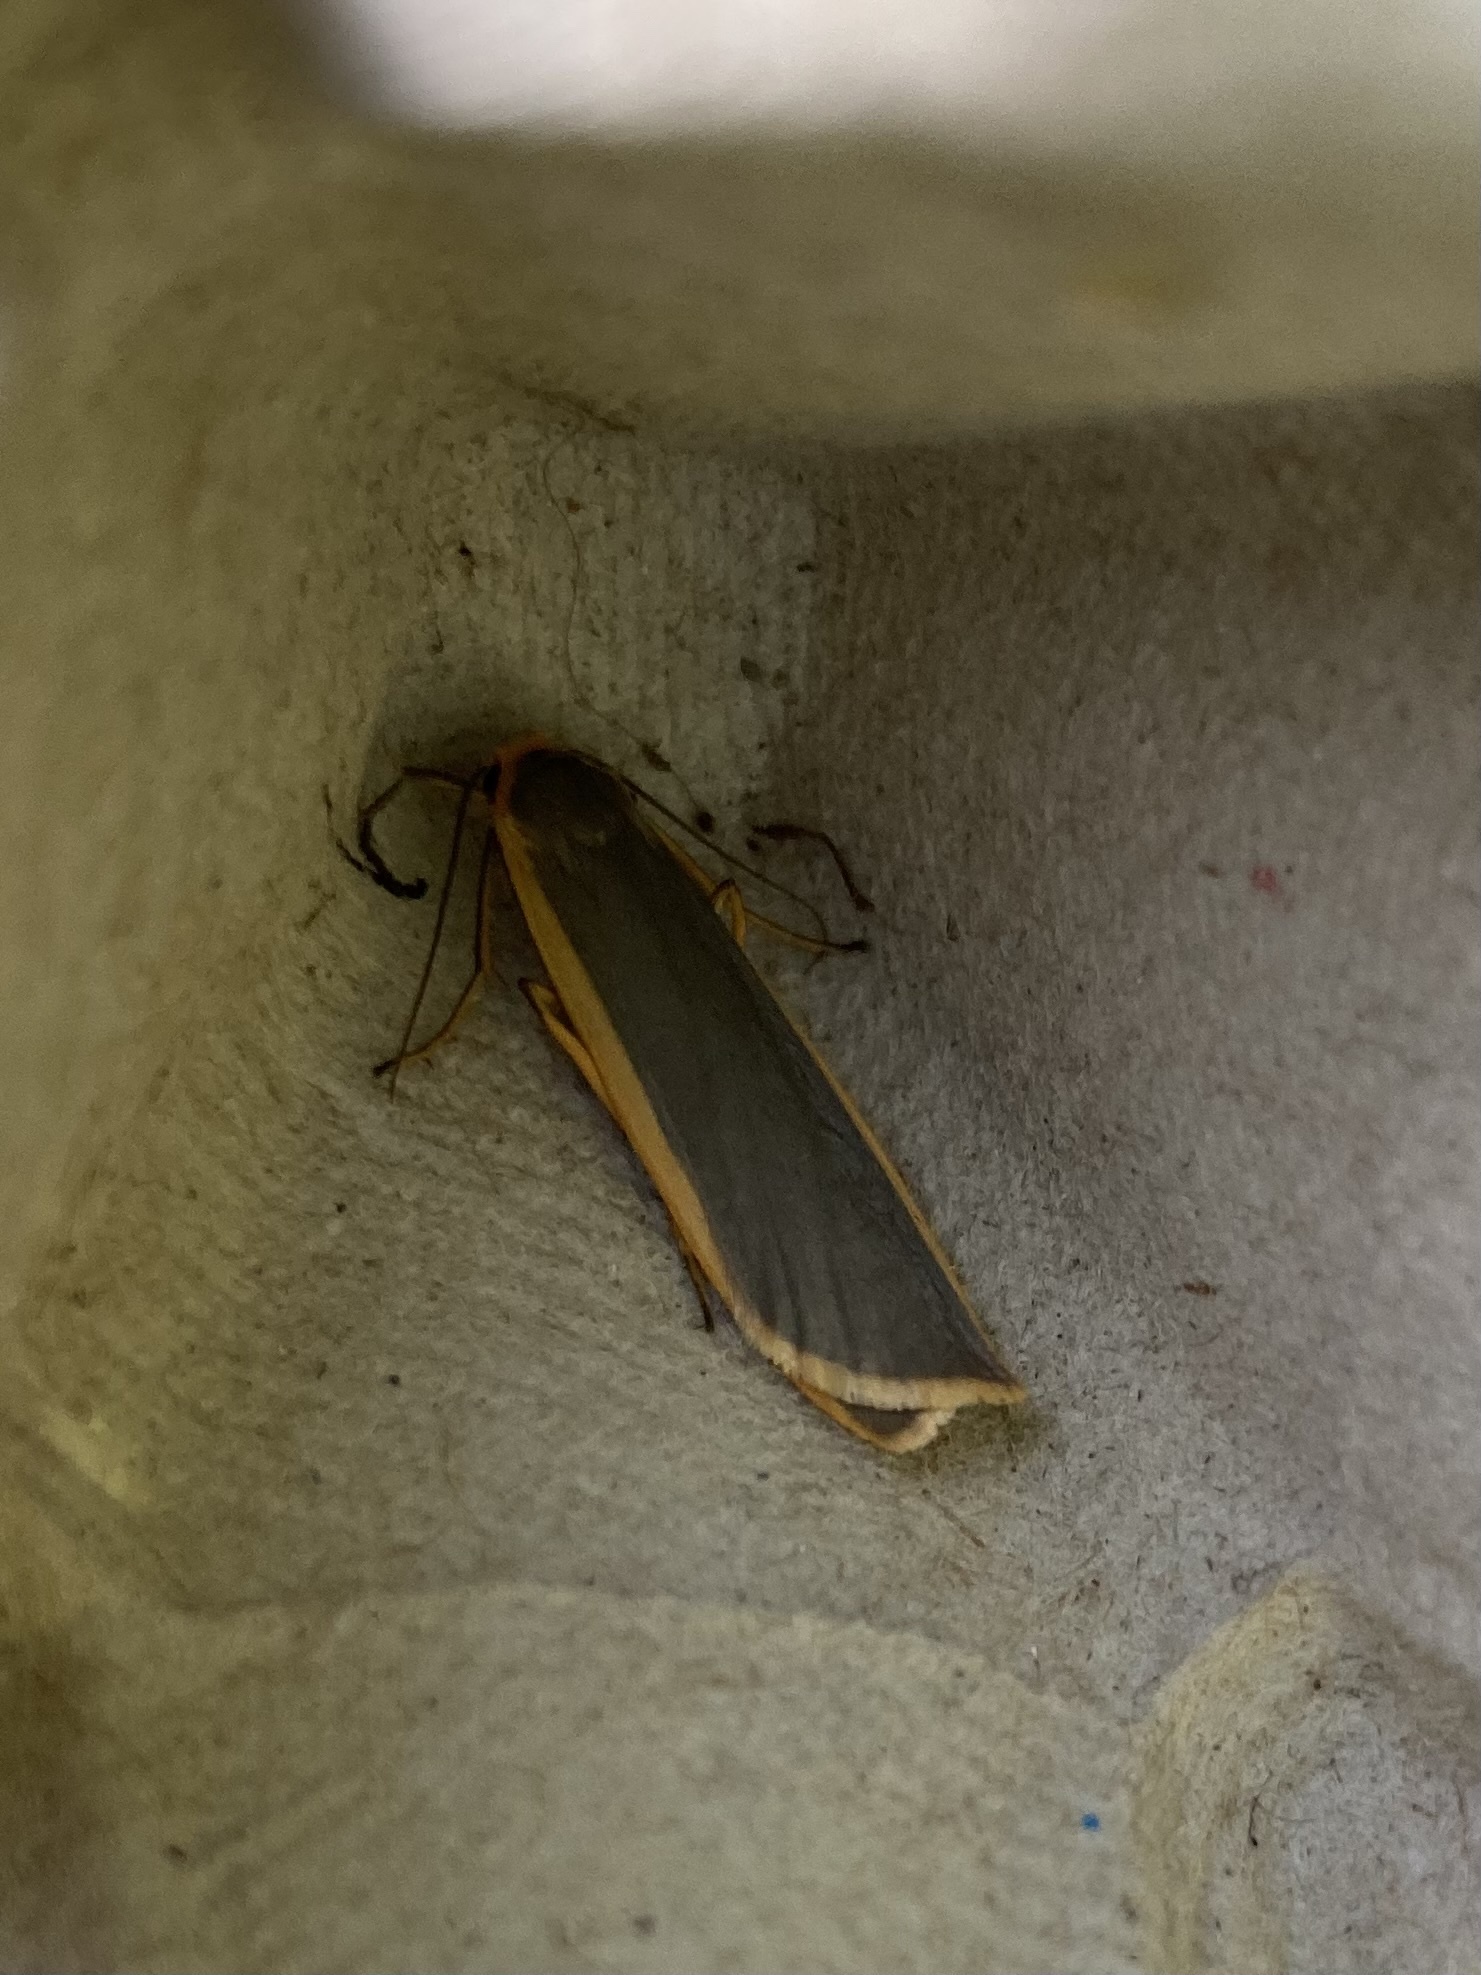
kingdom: Animalia
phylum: Arthropoda
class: Insecta
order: Lepidoptera
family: Erebidae
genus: Nyea
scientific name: Nyea lurideola
